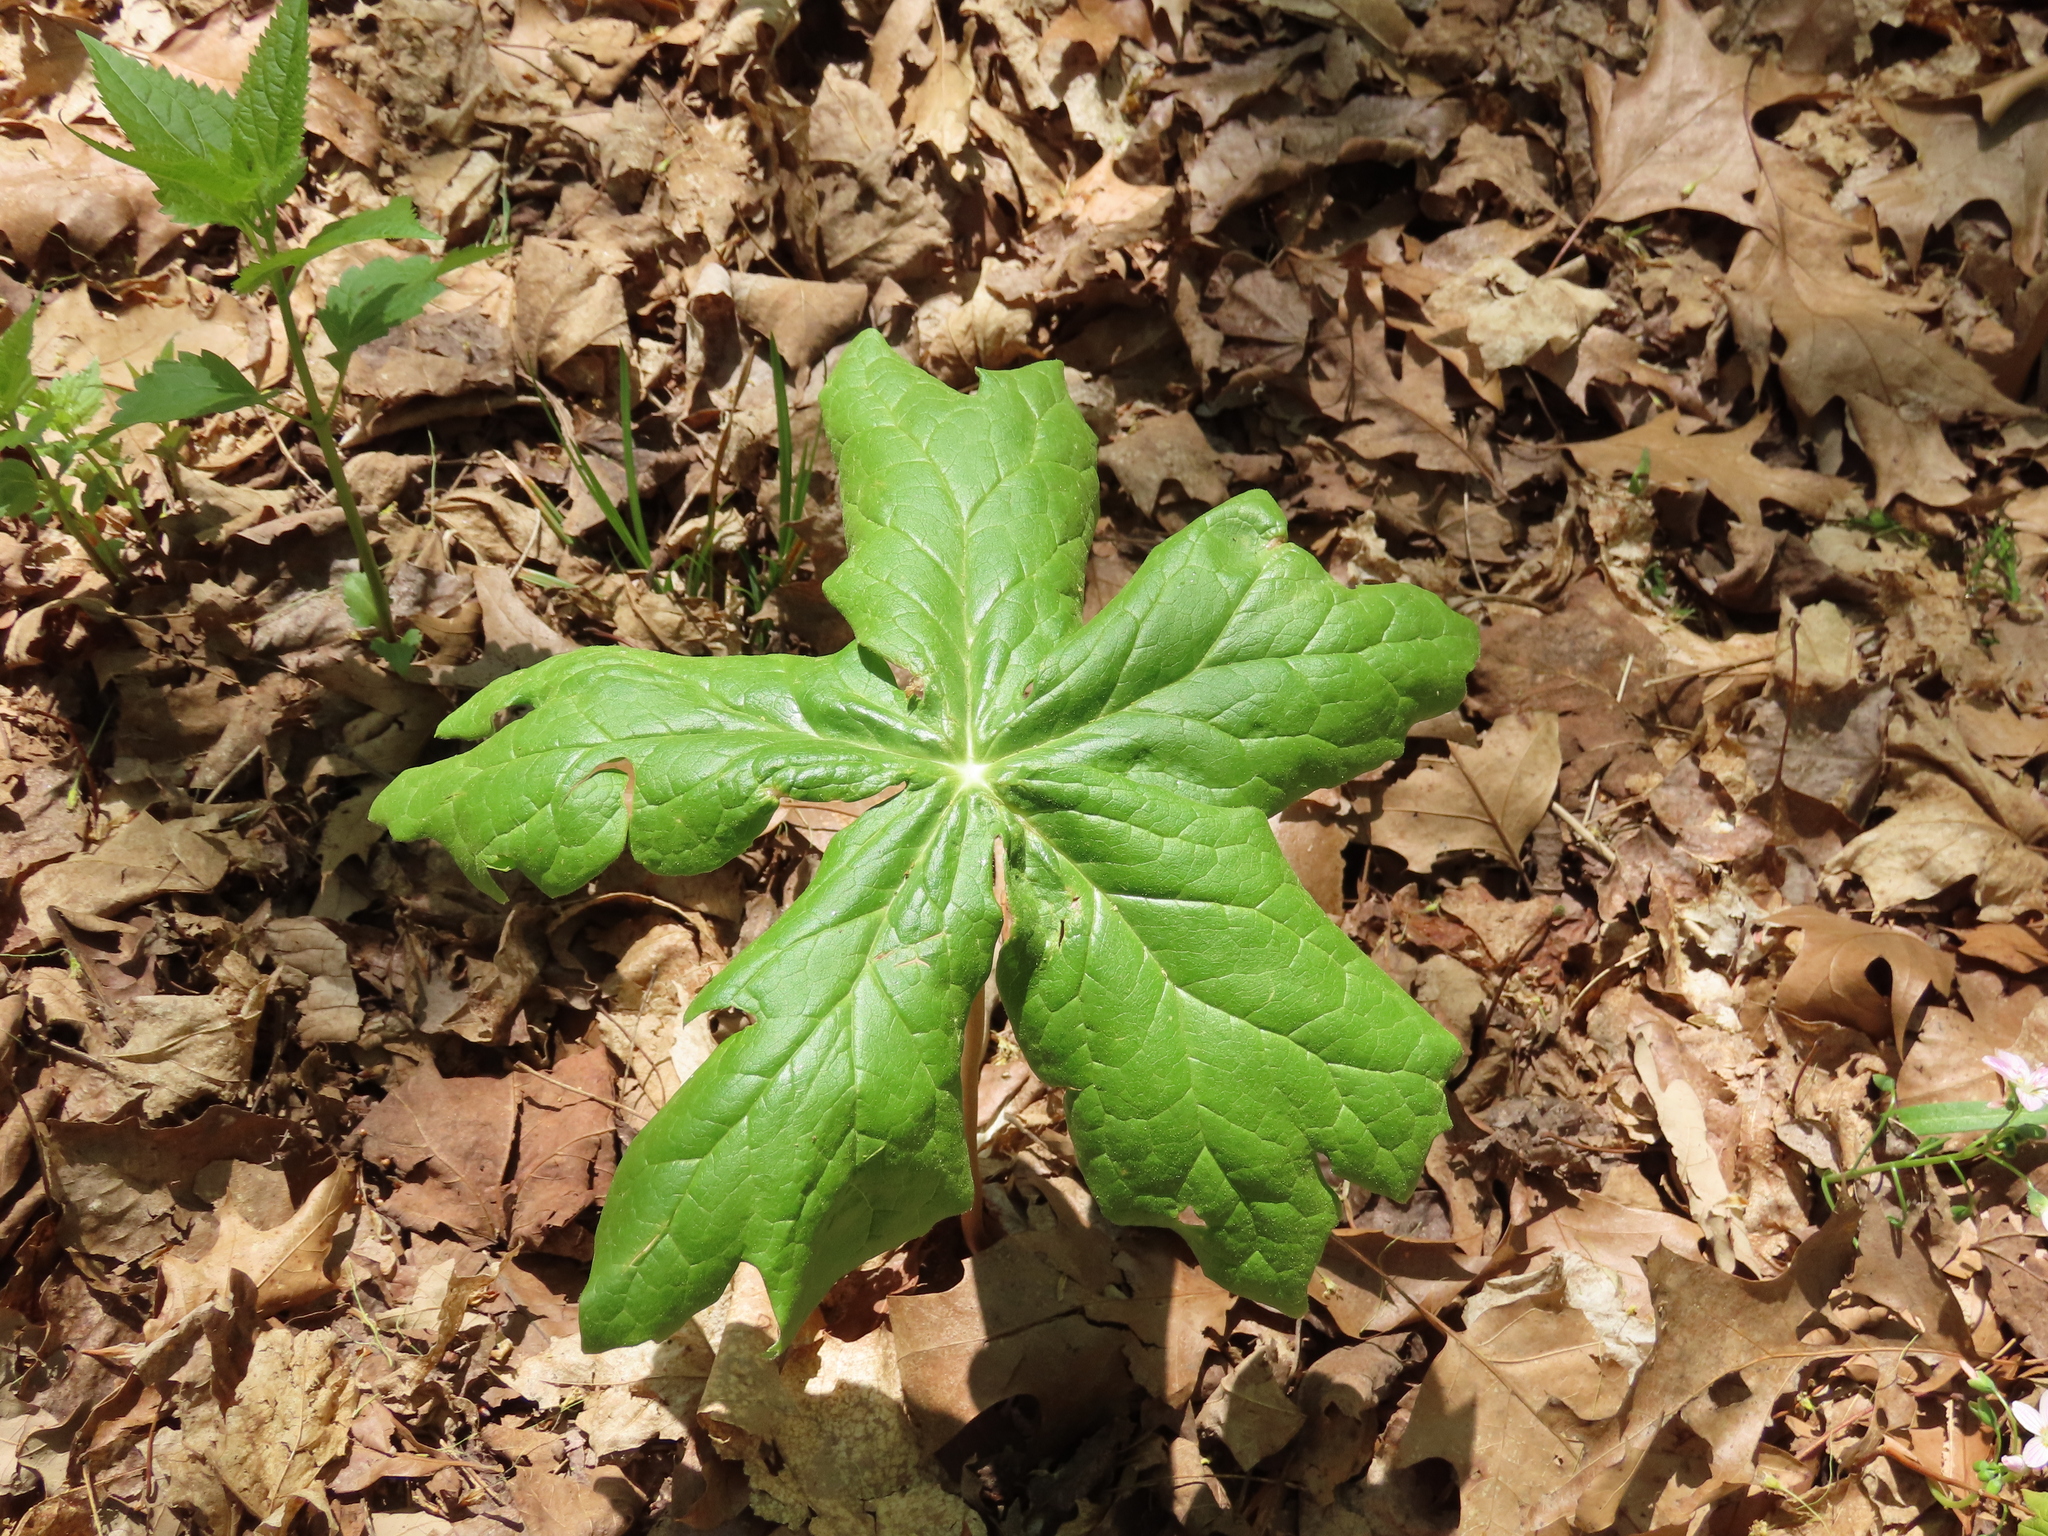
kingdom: Plantae
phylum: Tracheophyta
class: Magnoliopsida
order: Ranunculales
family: Berberidaceae
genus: Podophyllum
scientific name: Podophyllum peltatum
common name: Wild mandrake
